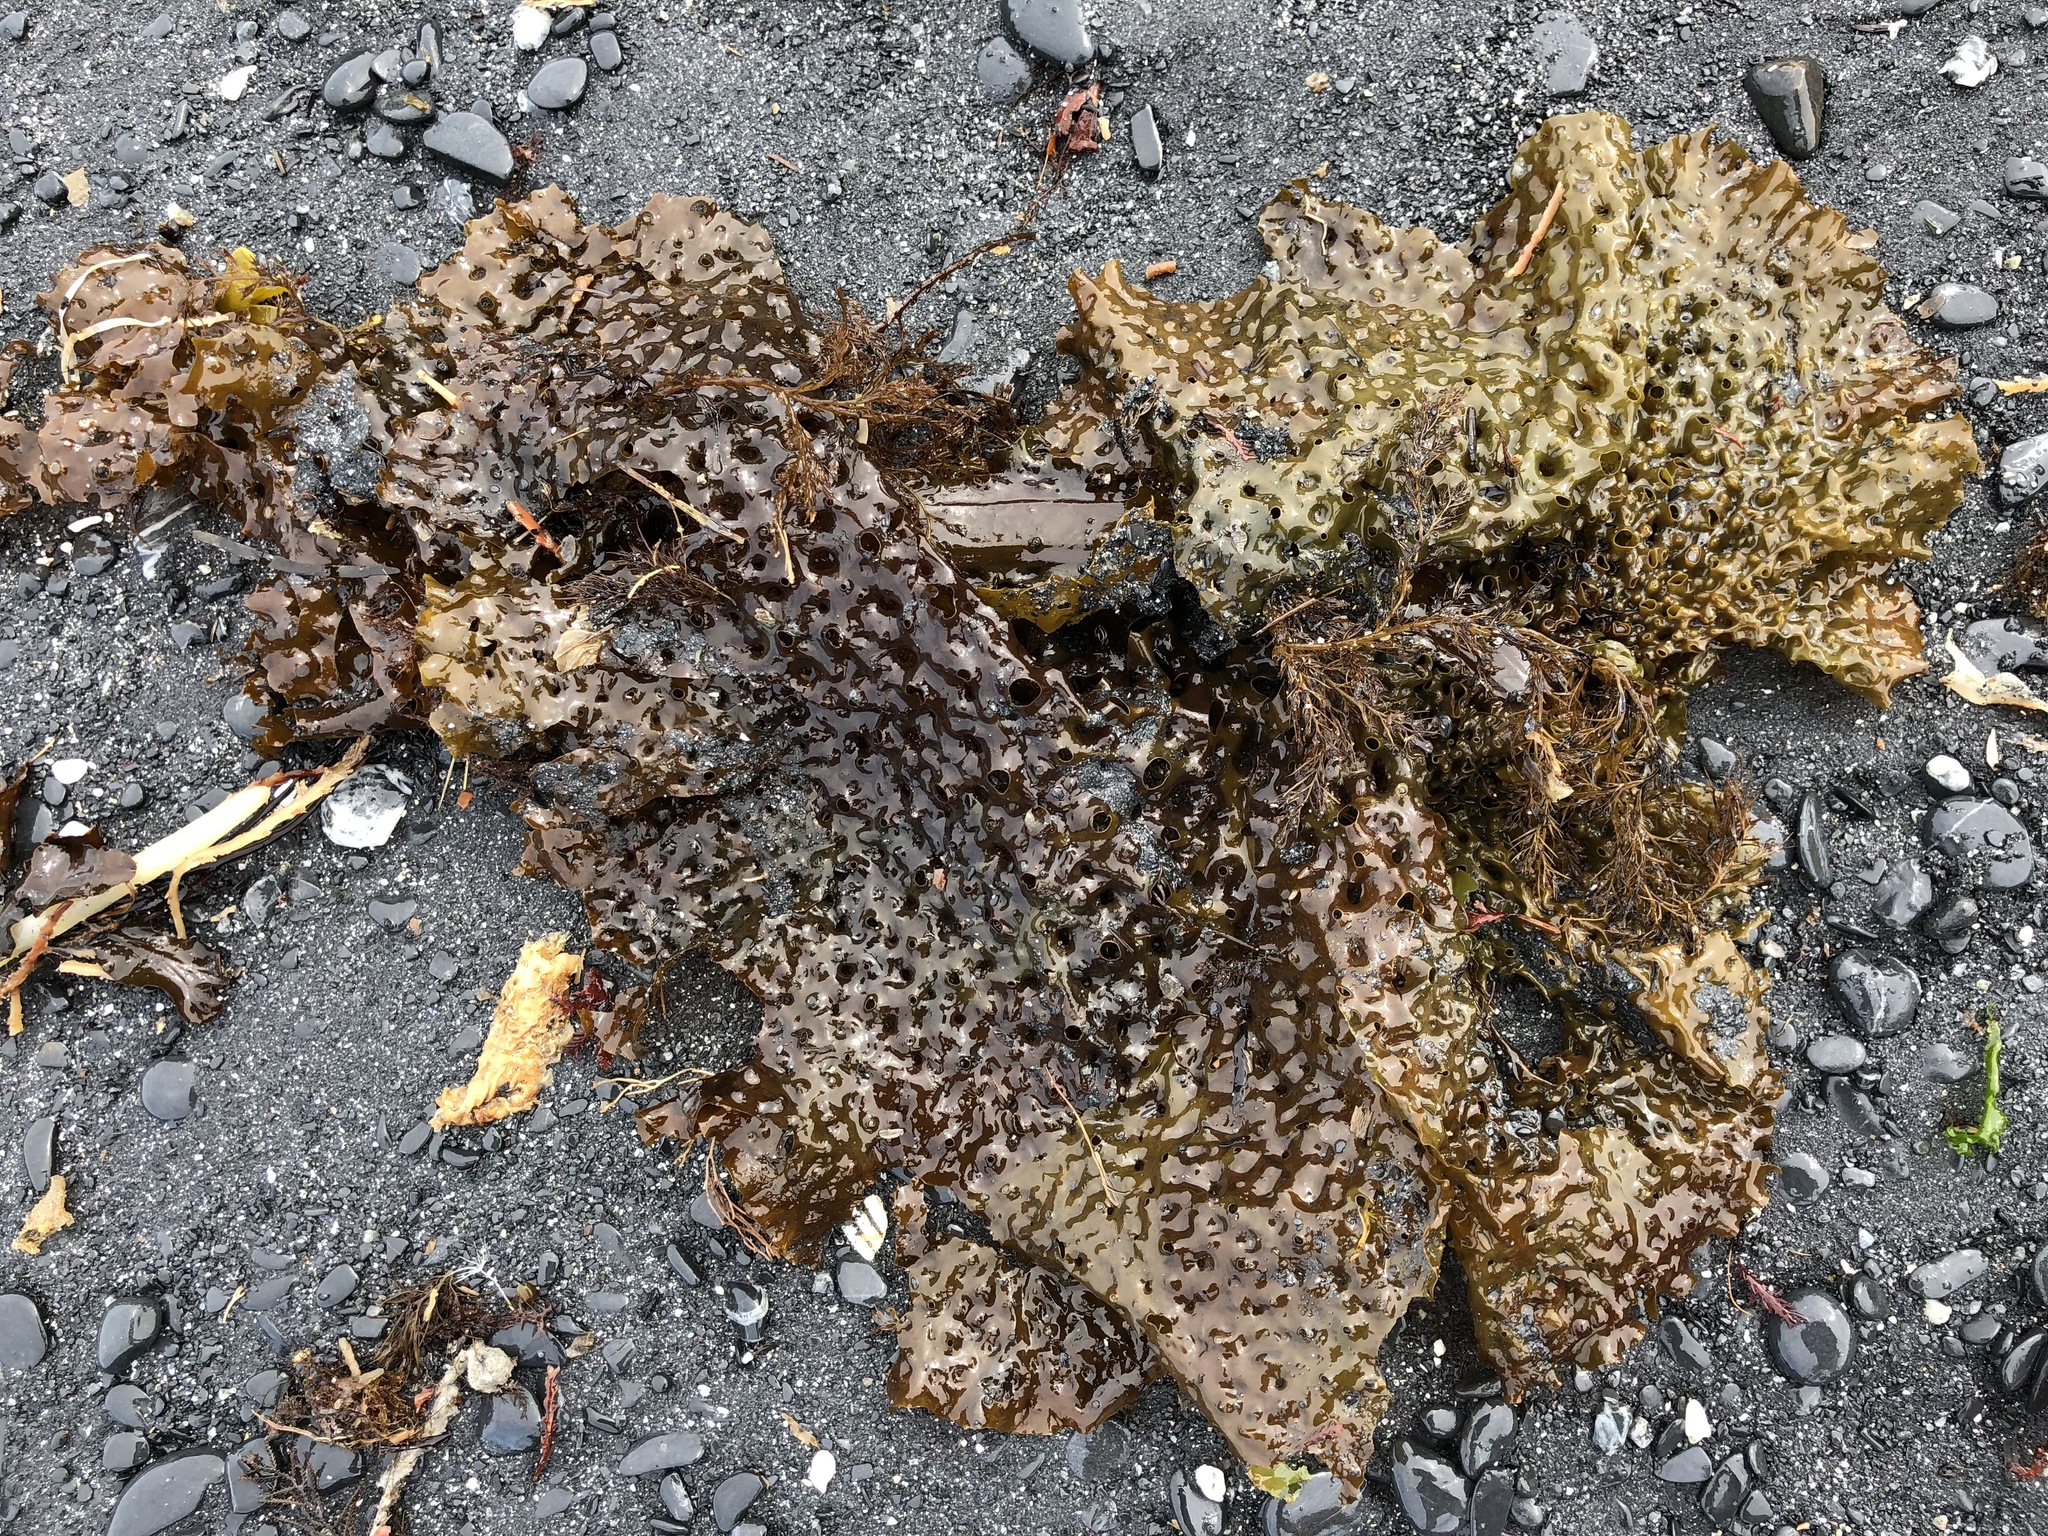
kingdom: Chromista
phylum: Ochrophyta
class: Phaeophyceae
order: Laminariales
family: Costariaceae
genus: Agarum
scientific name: Agarum clathratum
